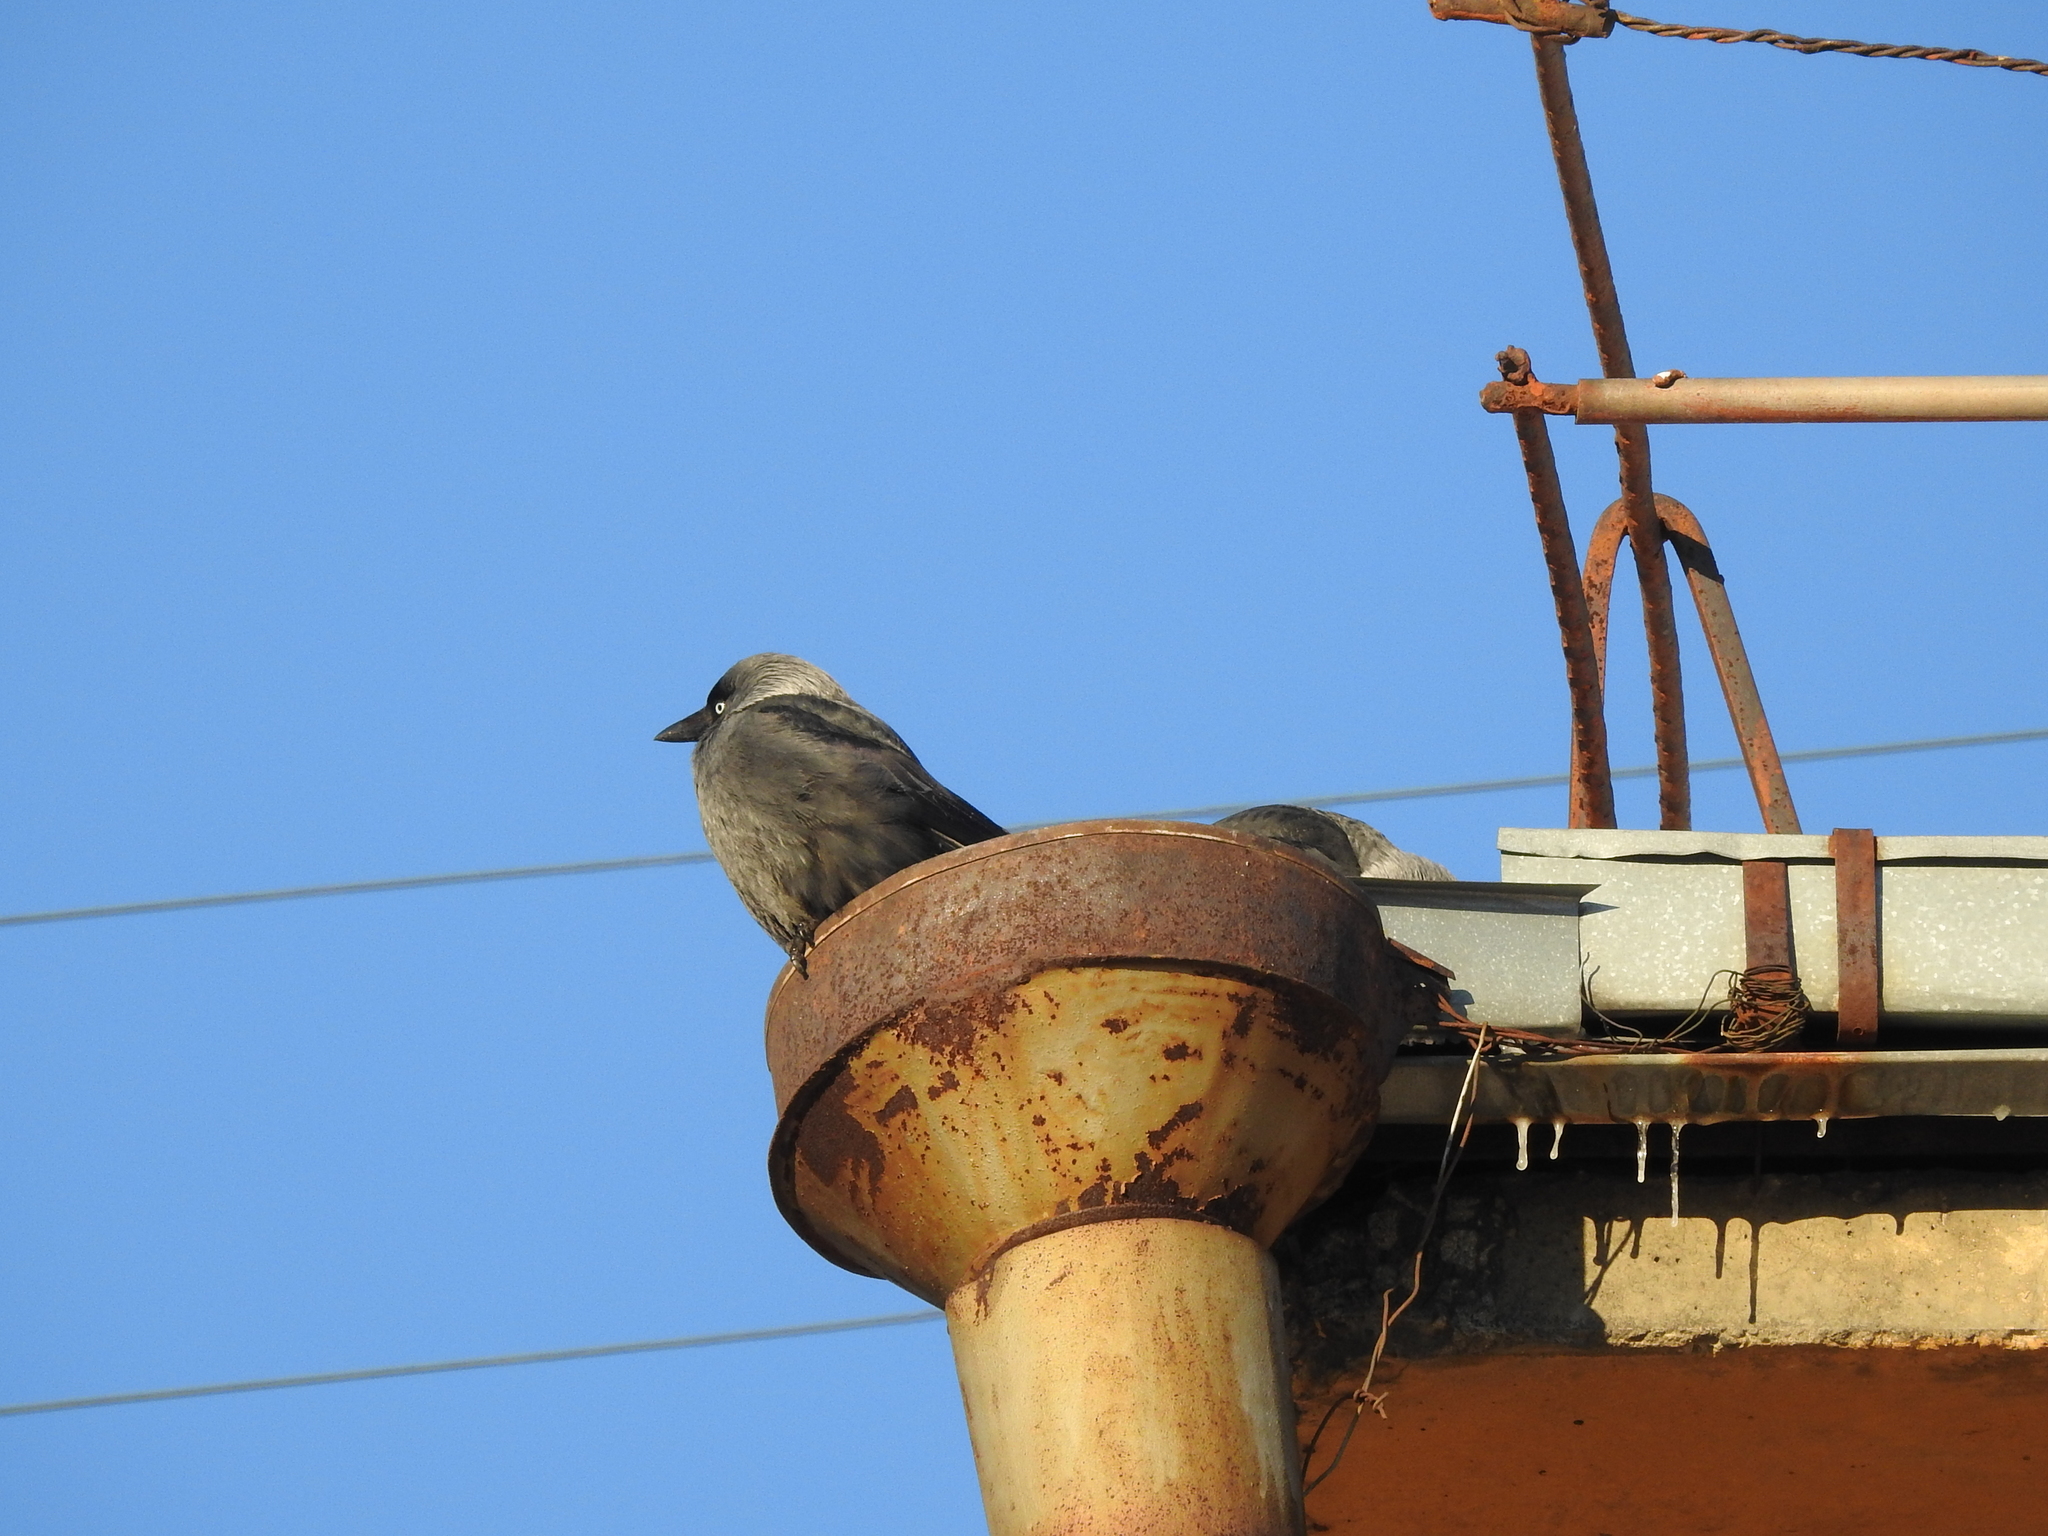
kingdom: Animalia
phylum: Chordata
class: Aves
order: Passeriformes
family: Corvidae
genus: Coloeus
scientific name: Coloeus monedula
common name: Western jackdaw
